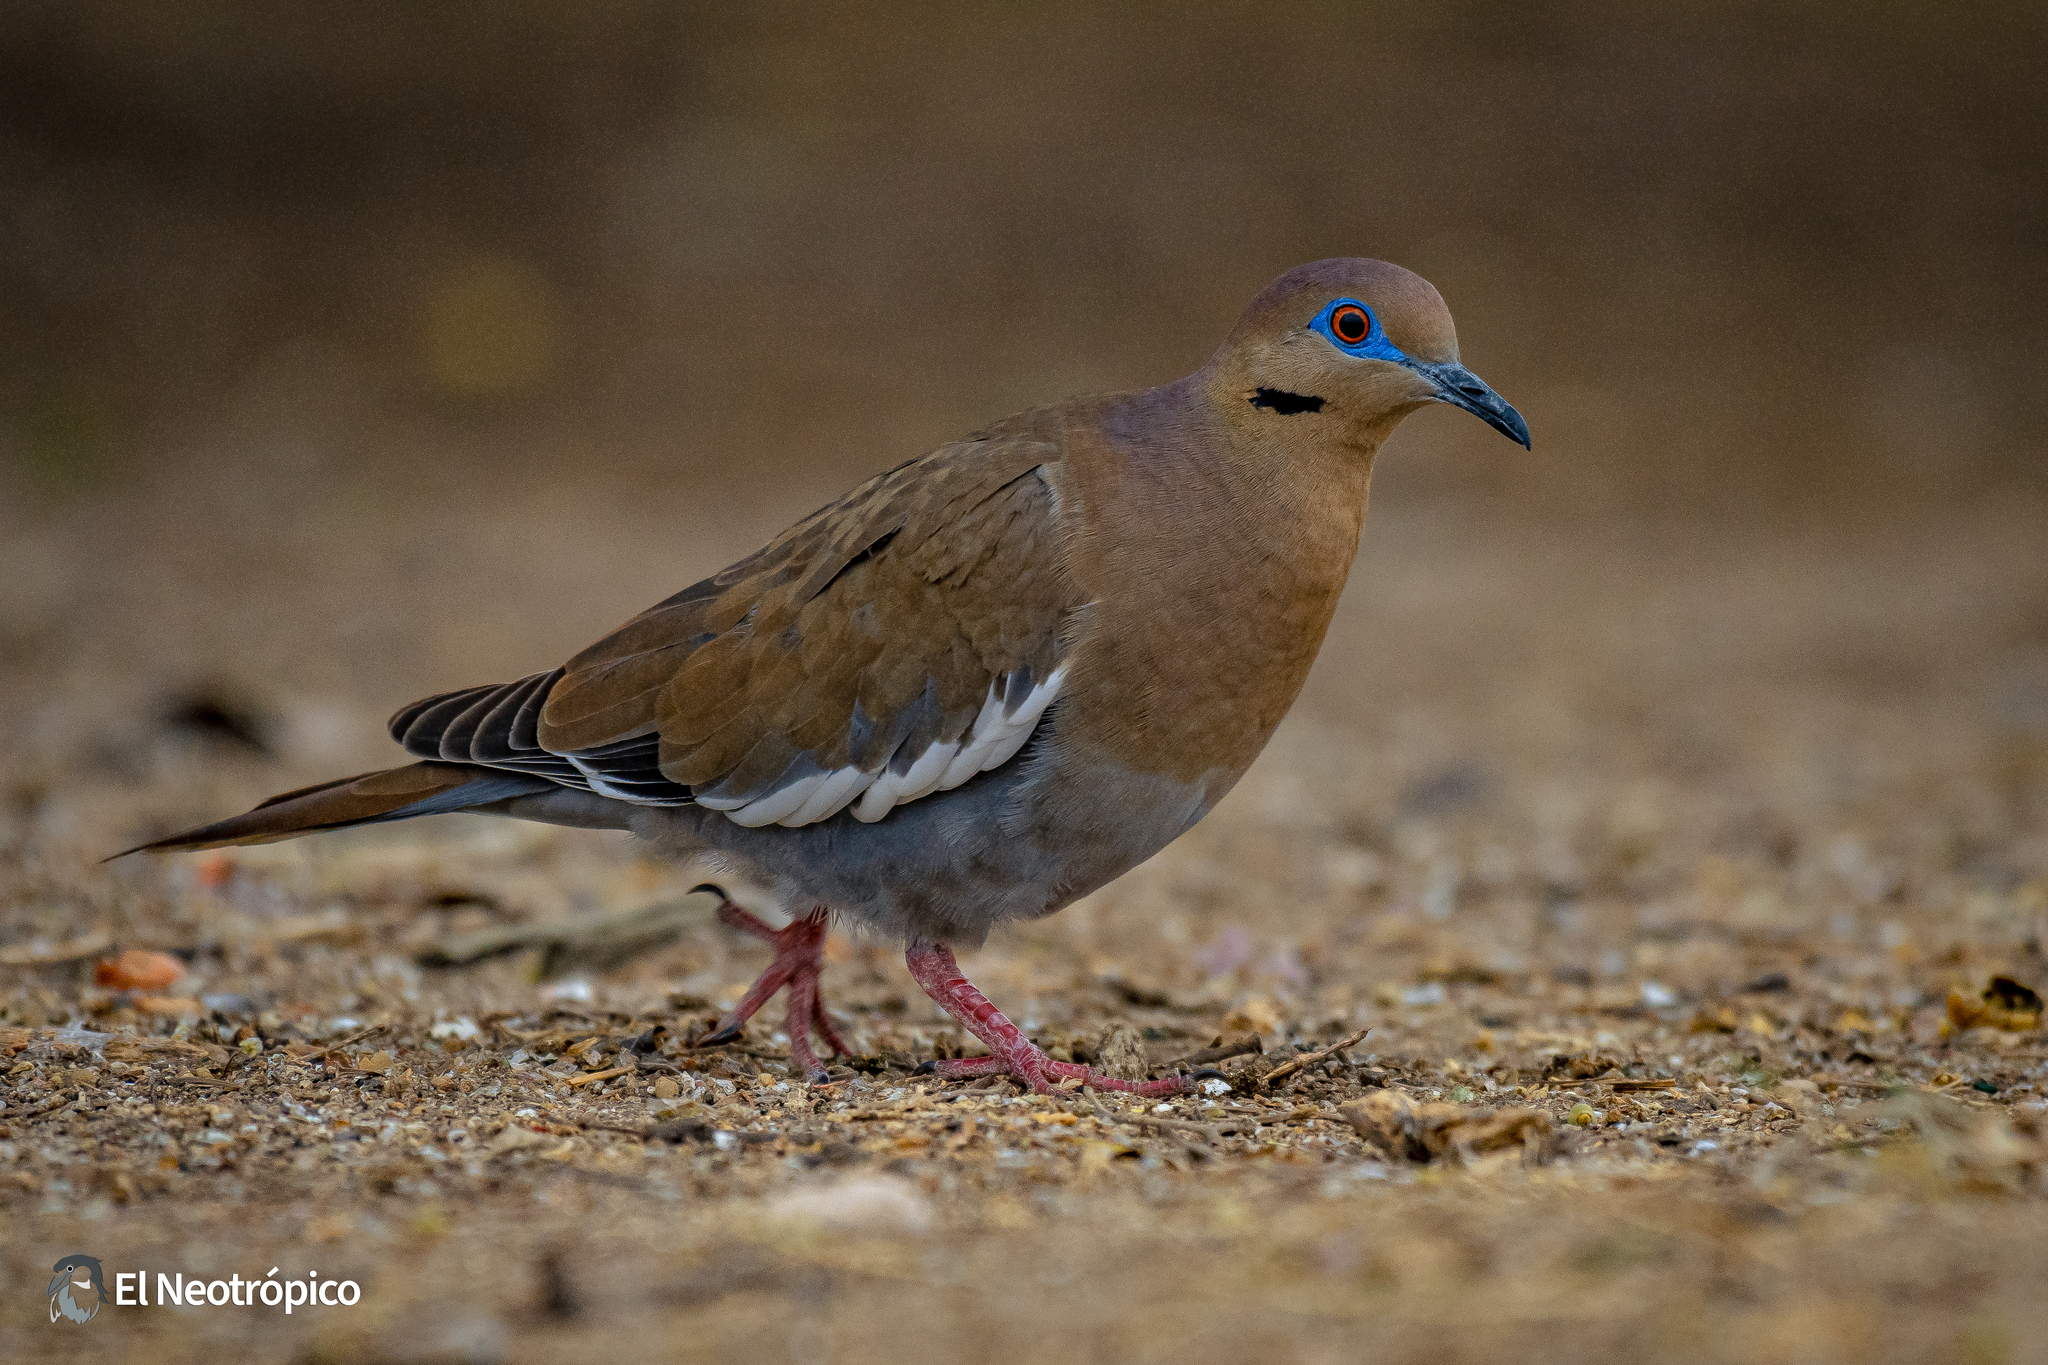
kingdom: Animalia
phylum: Chordata
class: Aves
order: Columbiformes
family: Columbidae
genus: Zenaida
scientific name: Zenaida asiatica
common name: White-winged dove
